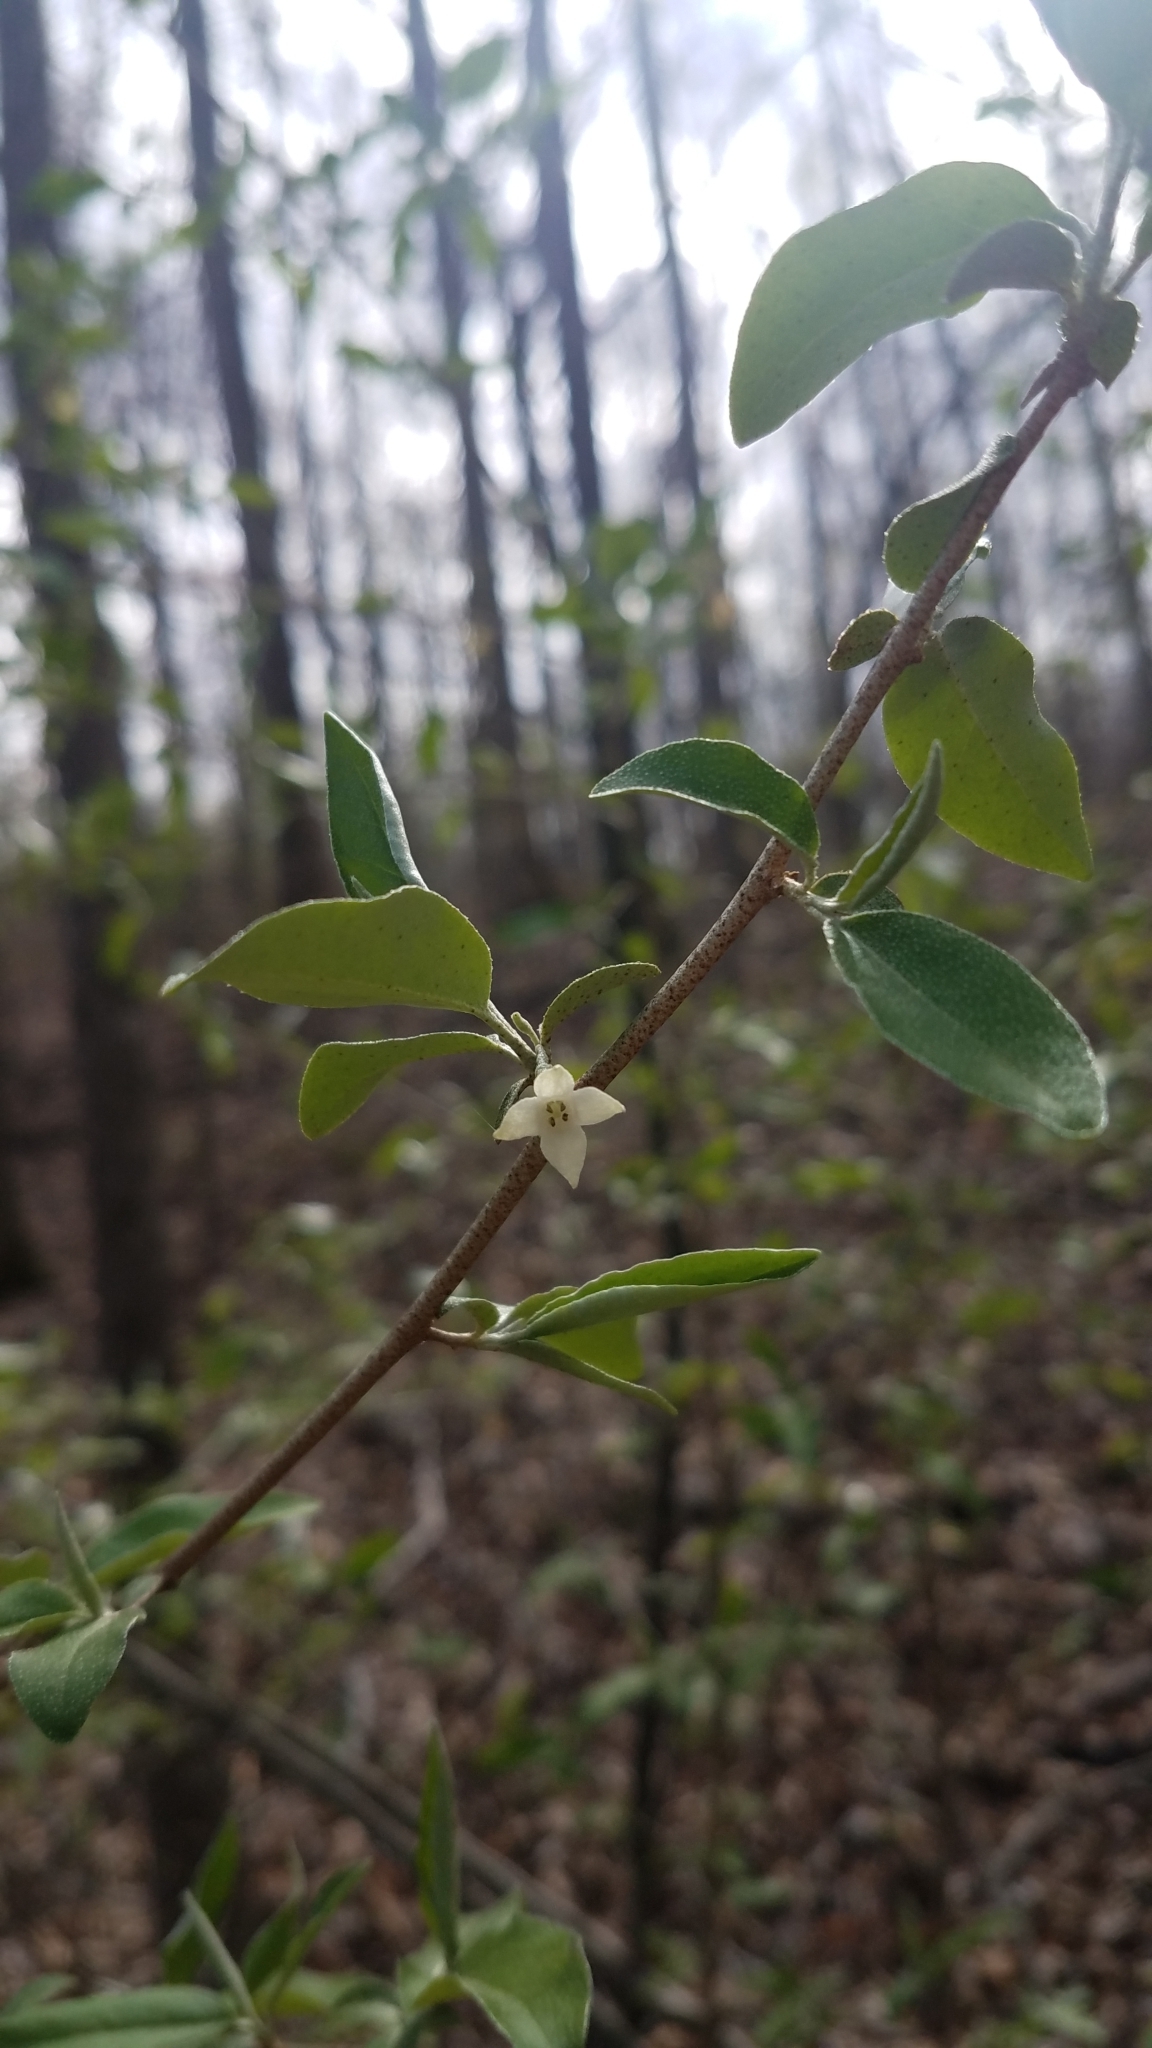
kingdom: Plantae
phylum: Tracheophyta
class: Magnoliopsida
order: Rosales
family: Elaeagnaceae
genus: Elaeagnus
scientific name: Elaeagnus umbellata
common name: Autumn olive
